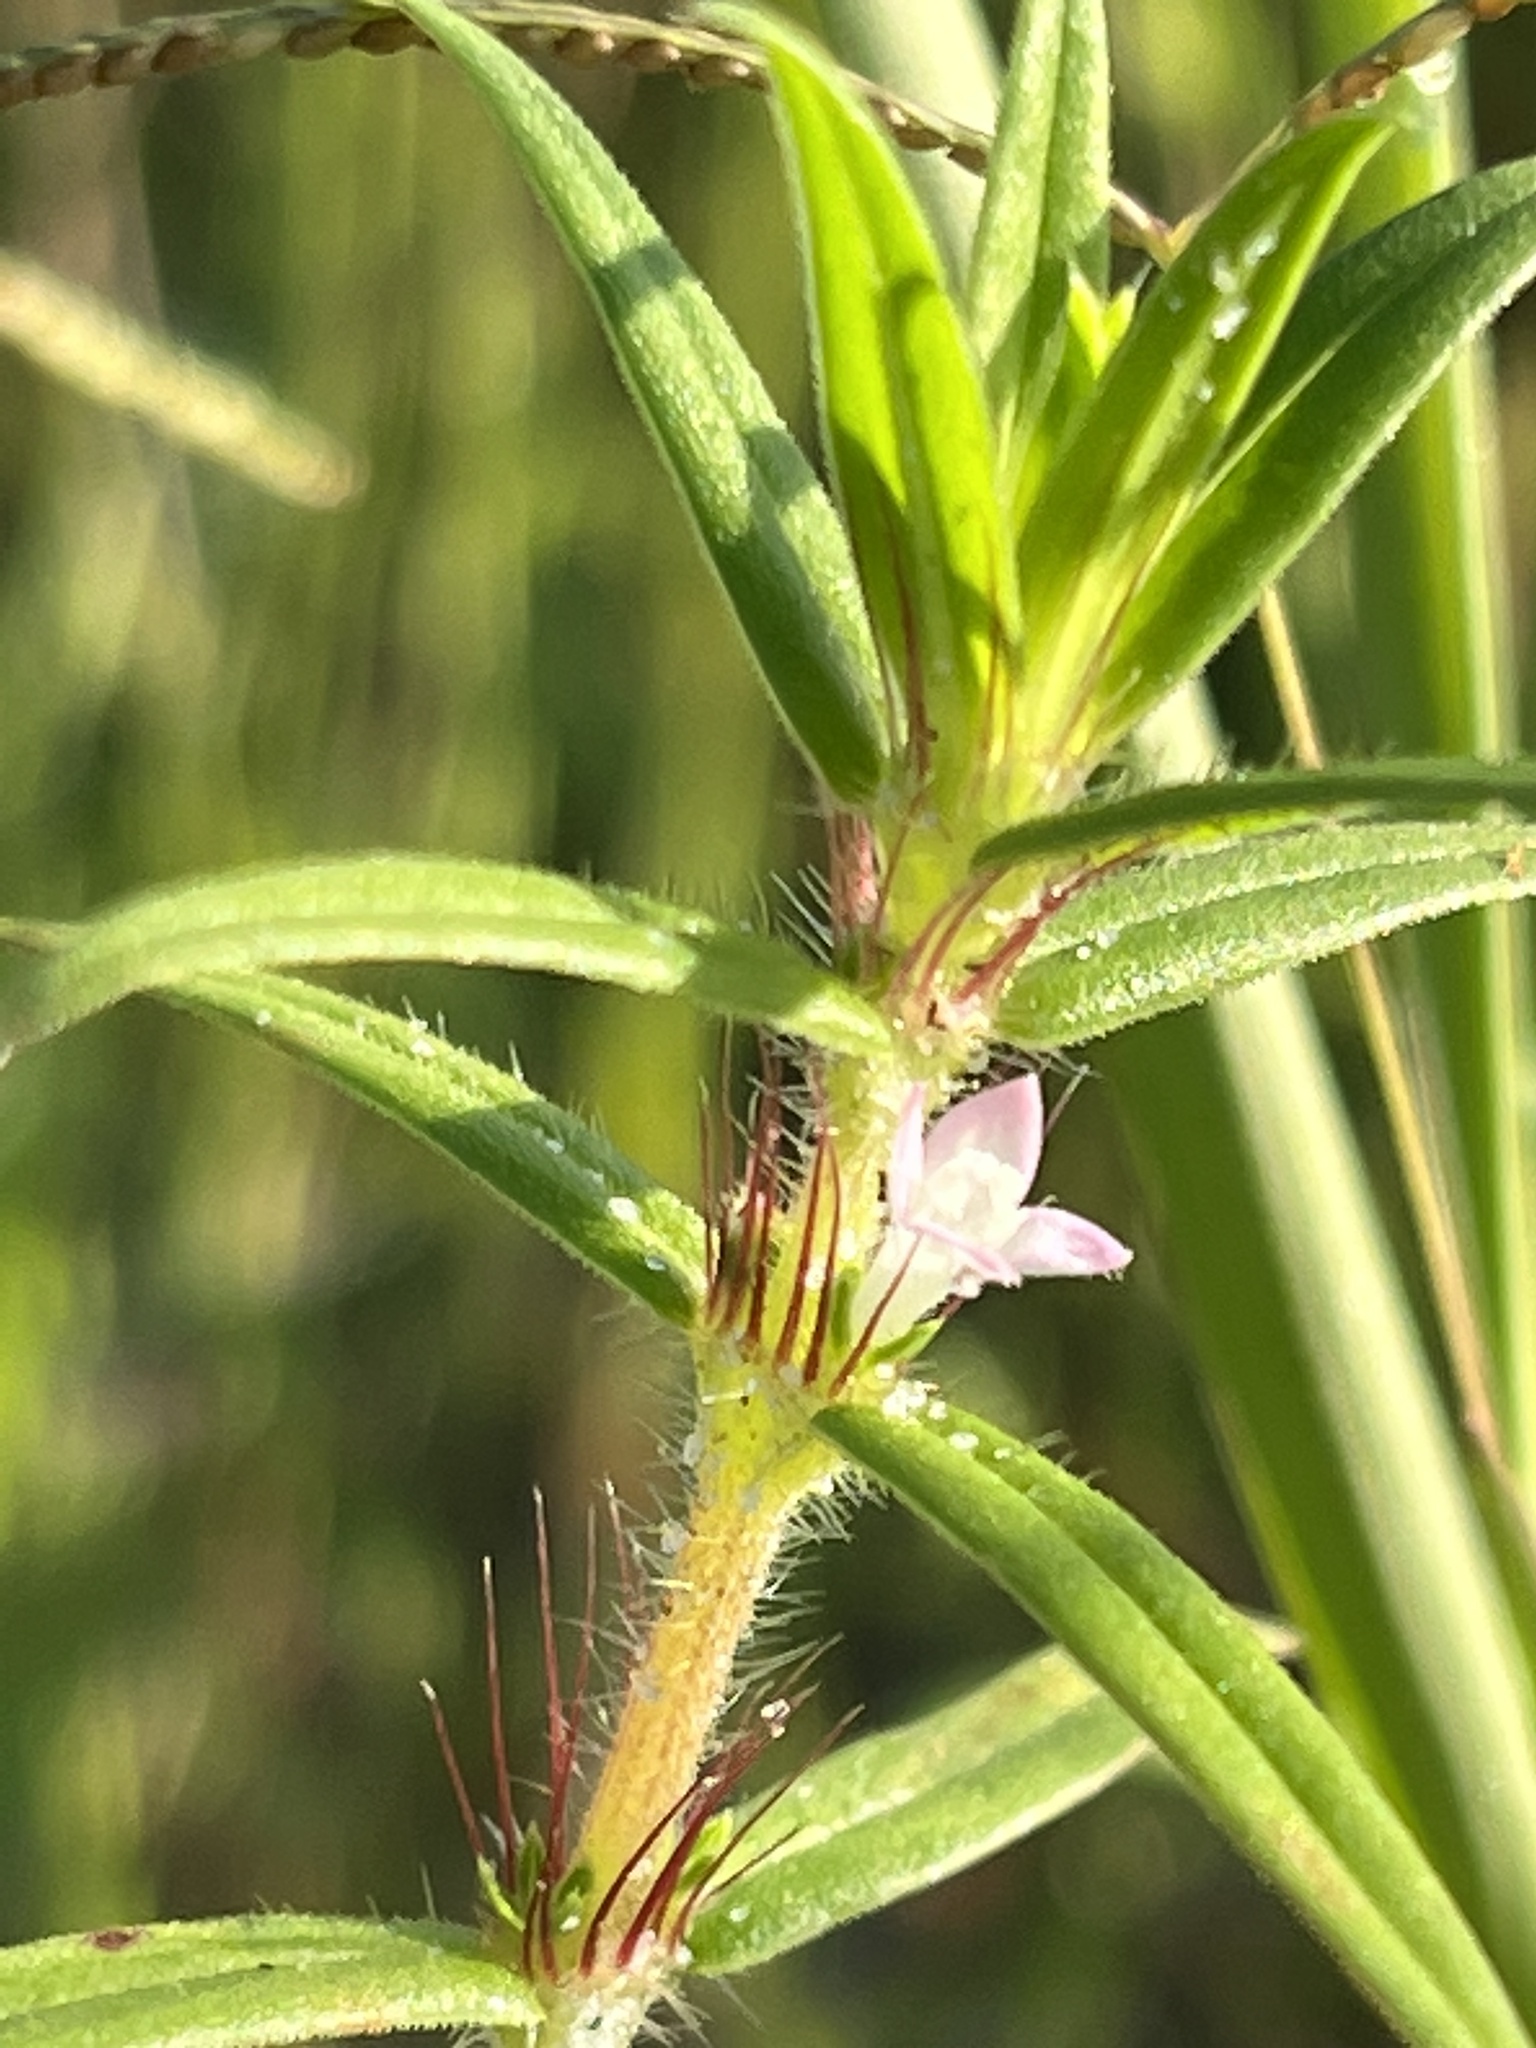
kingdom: Plantae
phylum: Tracheophyta
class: Magnoliopsida
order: Gentianales
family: Rubiaceae
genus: Hexasepalum
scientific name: Hexasepalum teres
